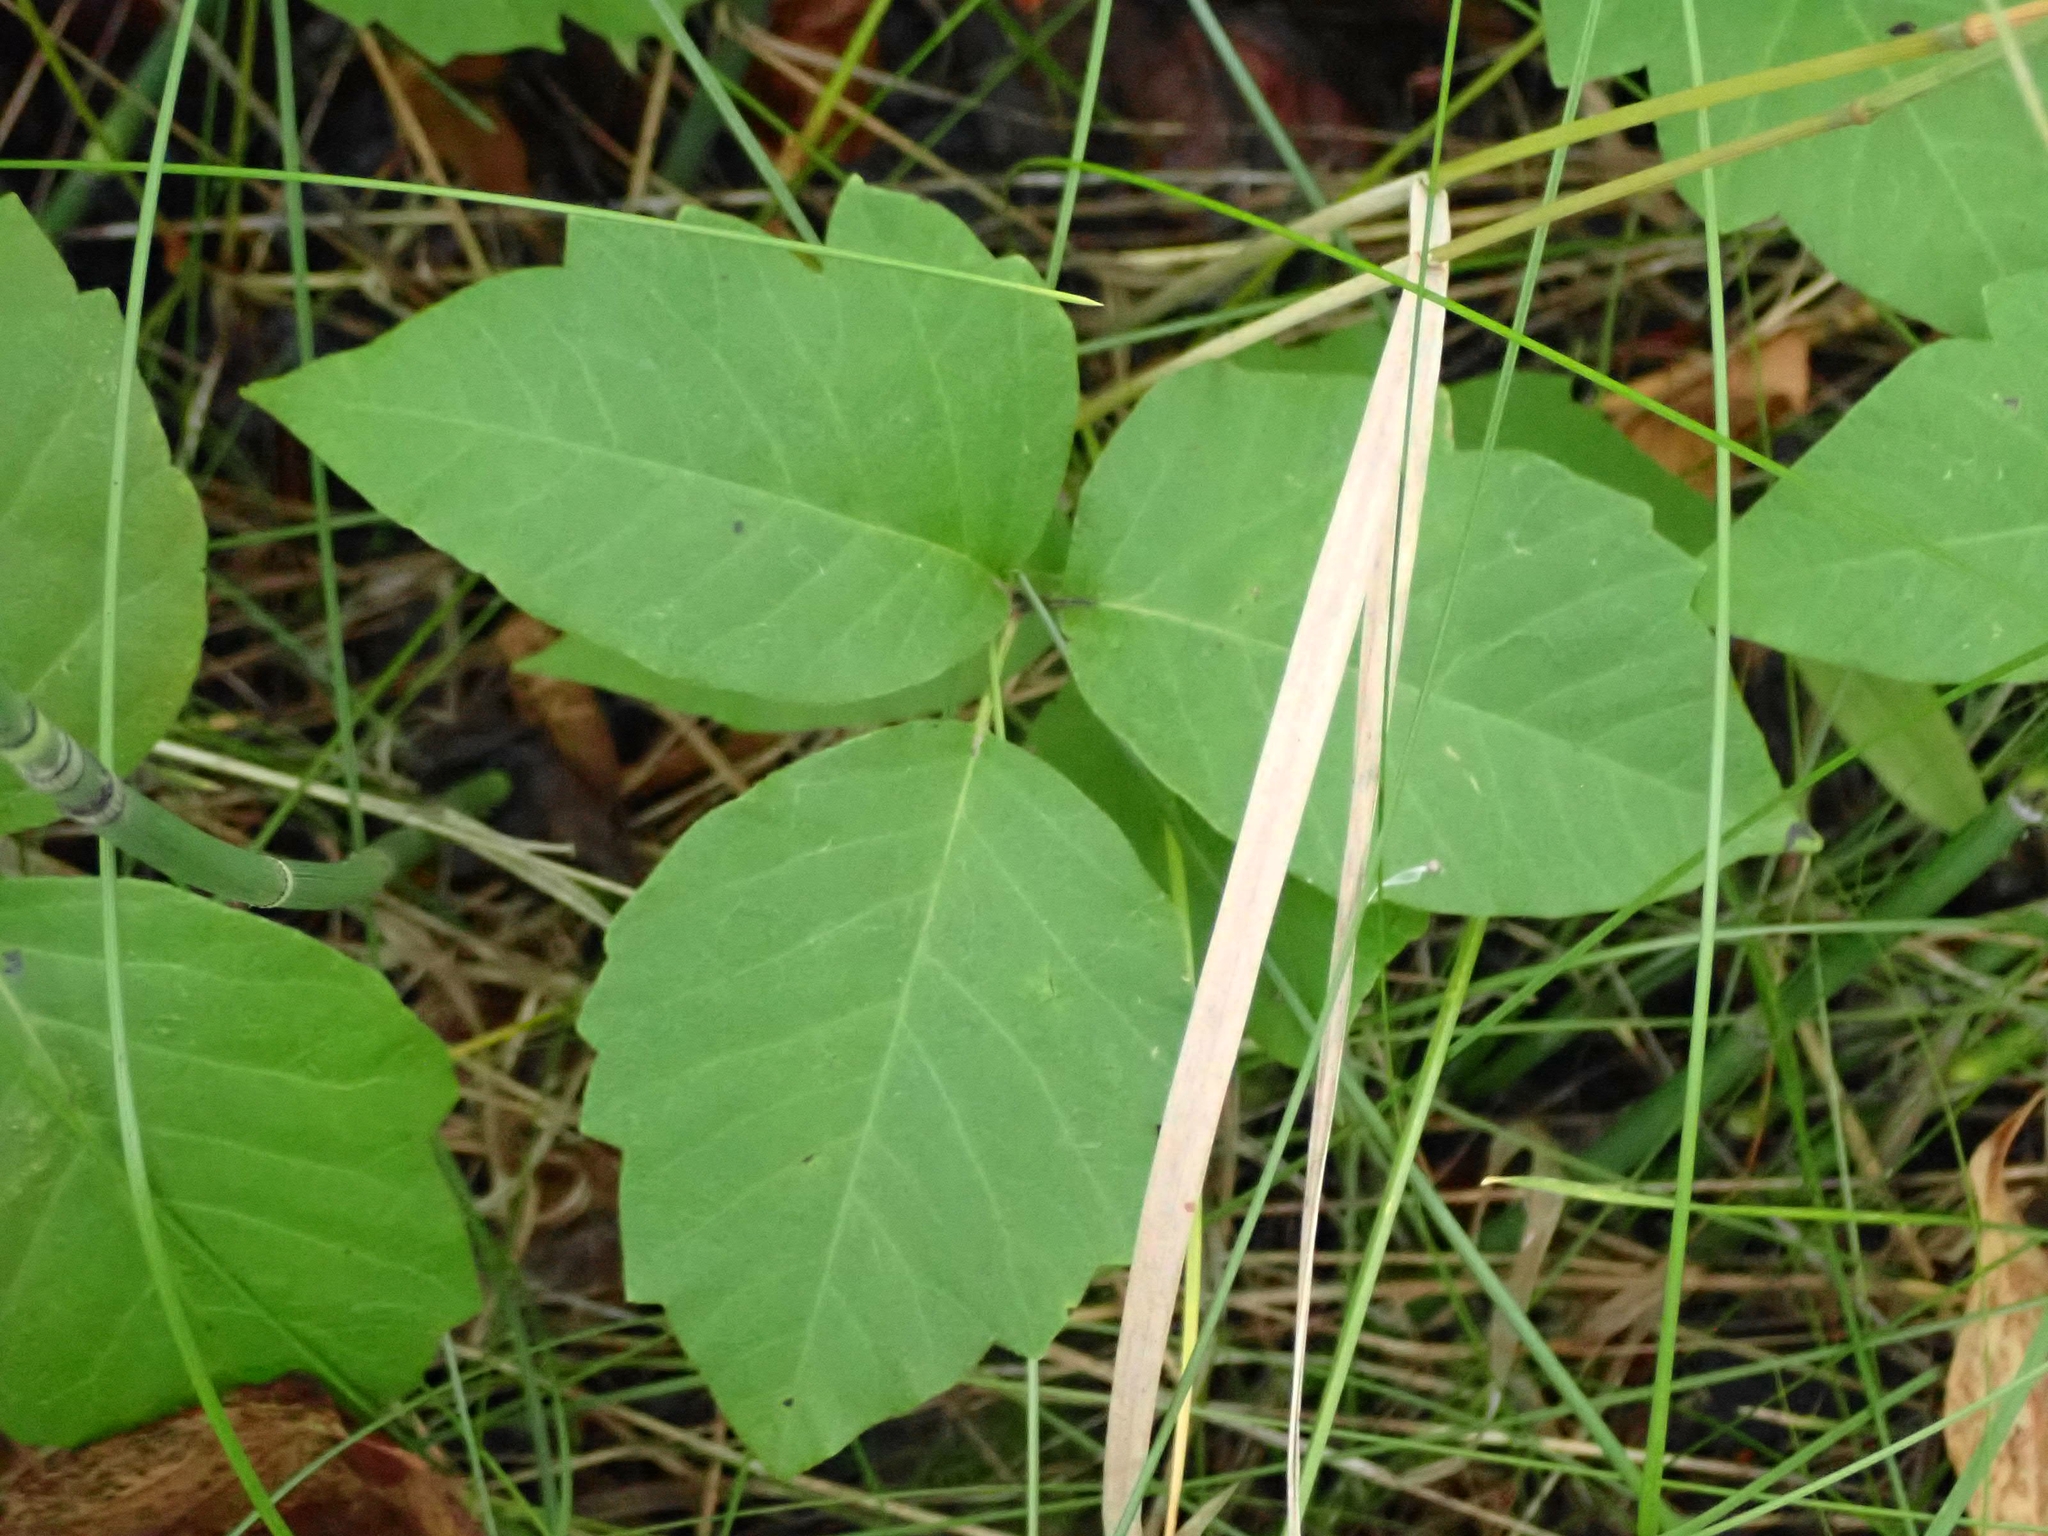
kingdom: Plantae
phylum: Tracheophyta
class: Magnoliopsida
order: Sapindales
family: Anacardiaceae
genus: Toxicodendron
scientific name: Toxicodendron rydbergii
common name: Rydberg's poison-ivy
